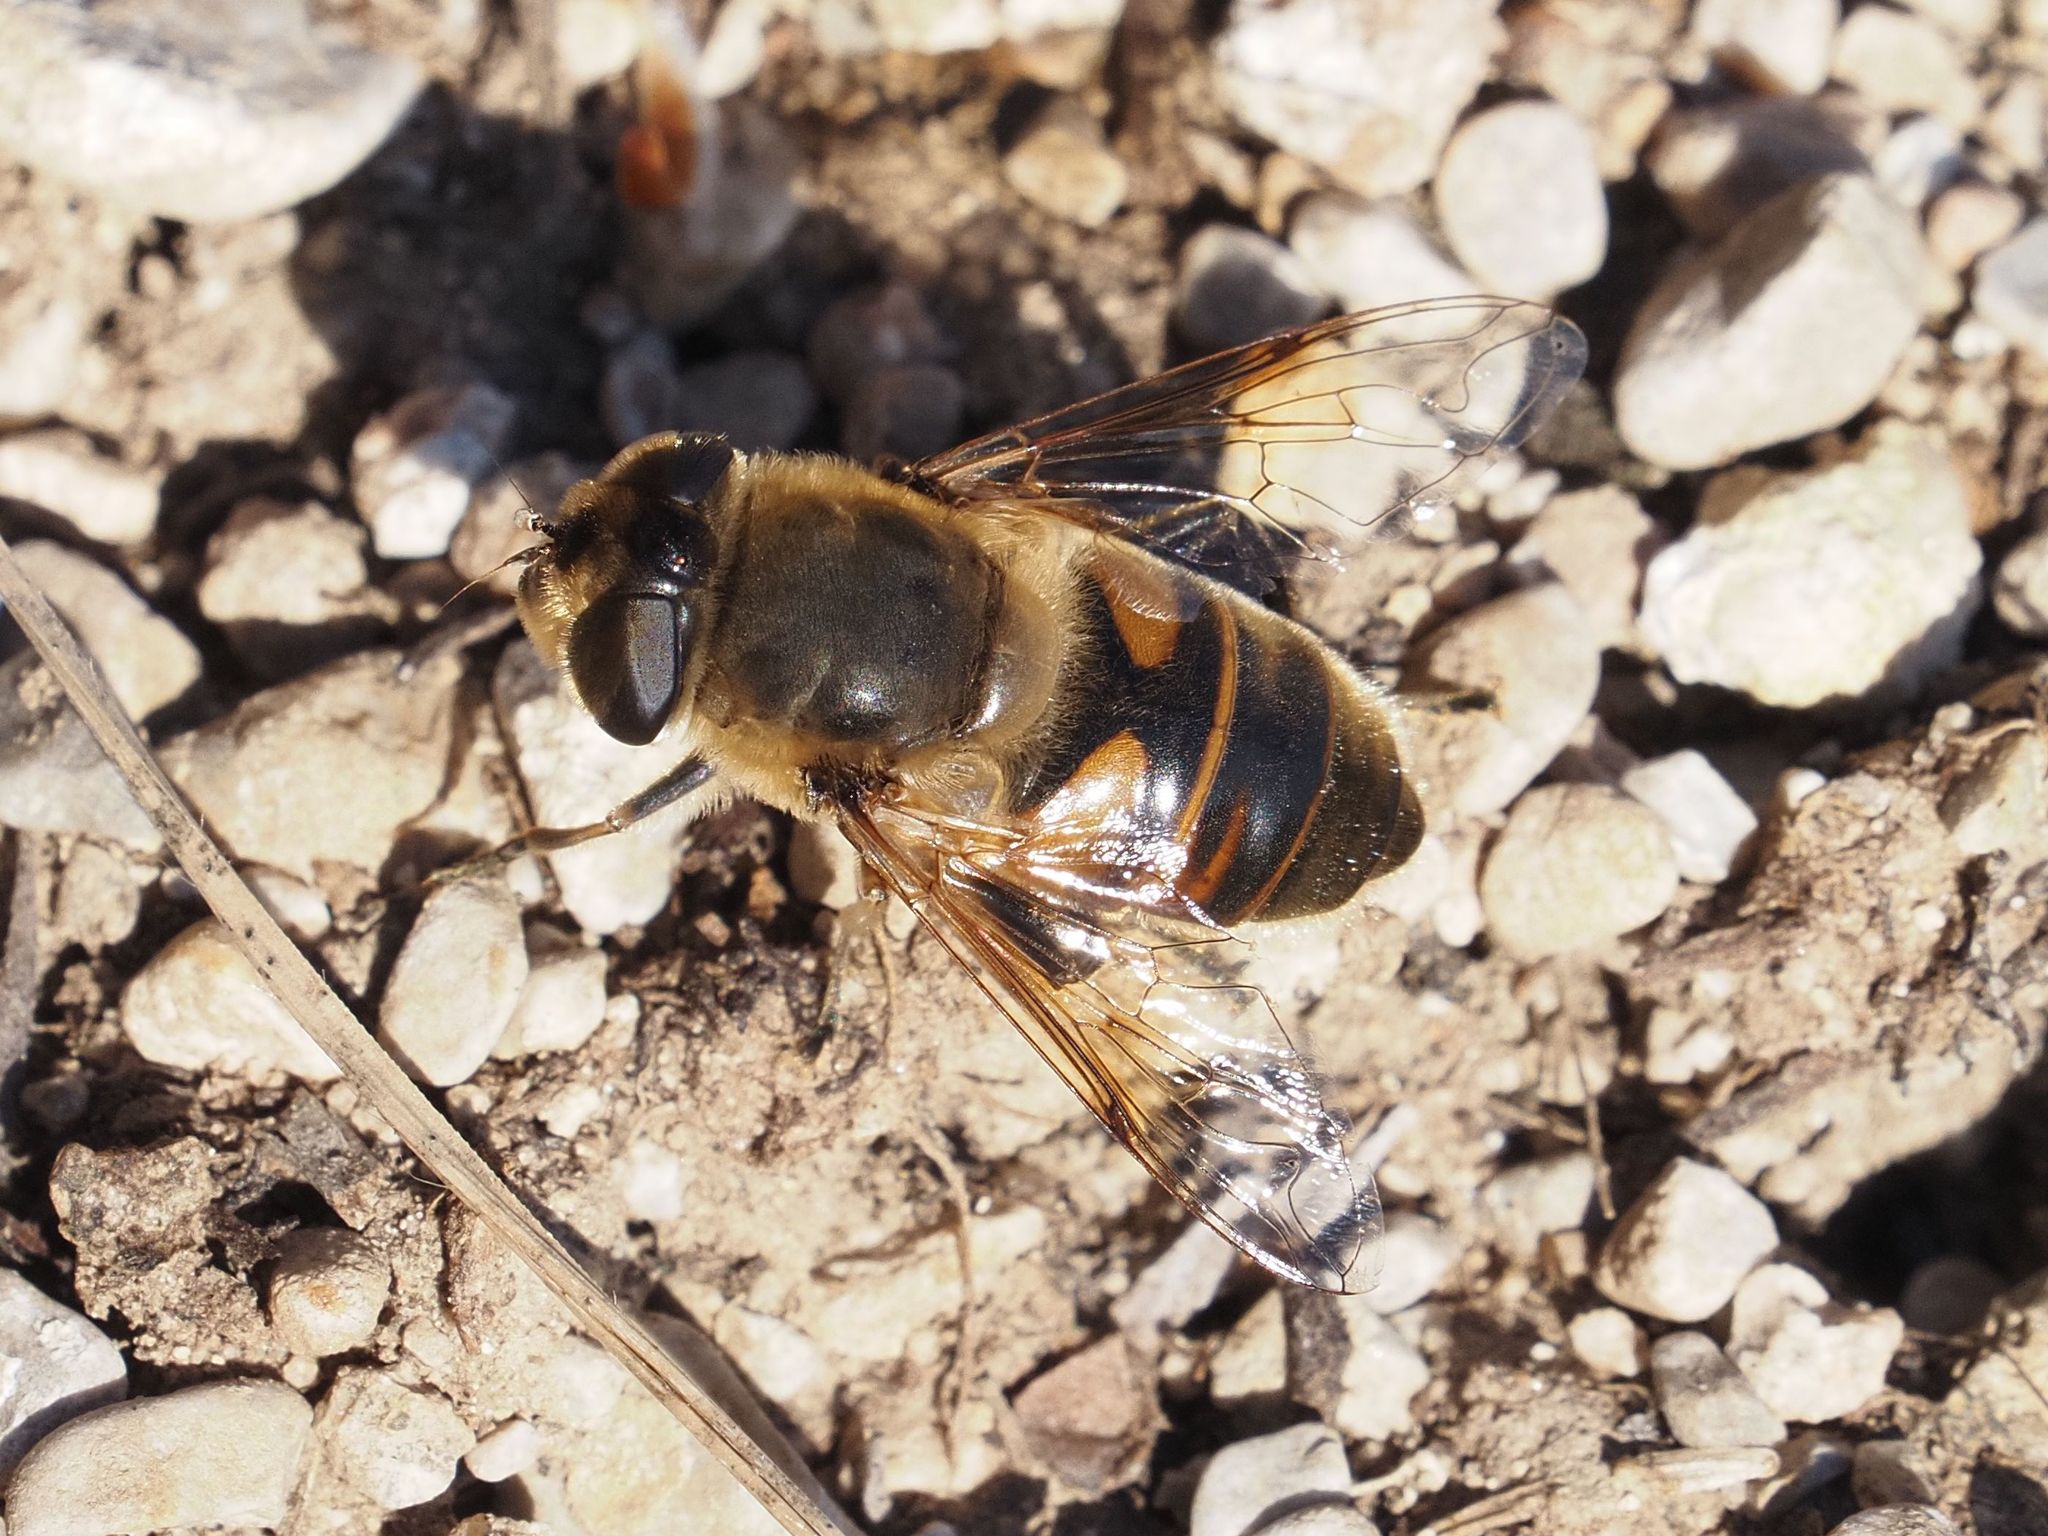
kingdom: Animalia
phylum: Arthropoda
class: Insecta
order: Diptera
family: Syrphidae
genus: Eristalis
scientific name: Eristalis tenax
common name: Drone fly
